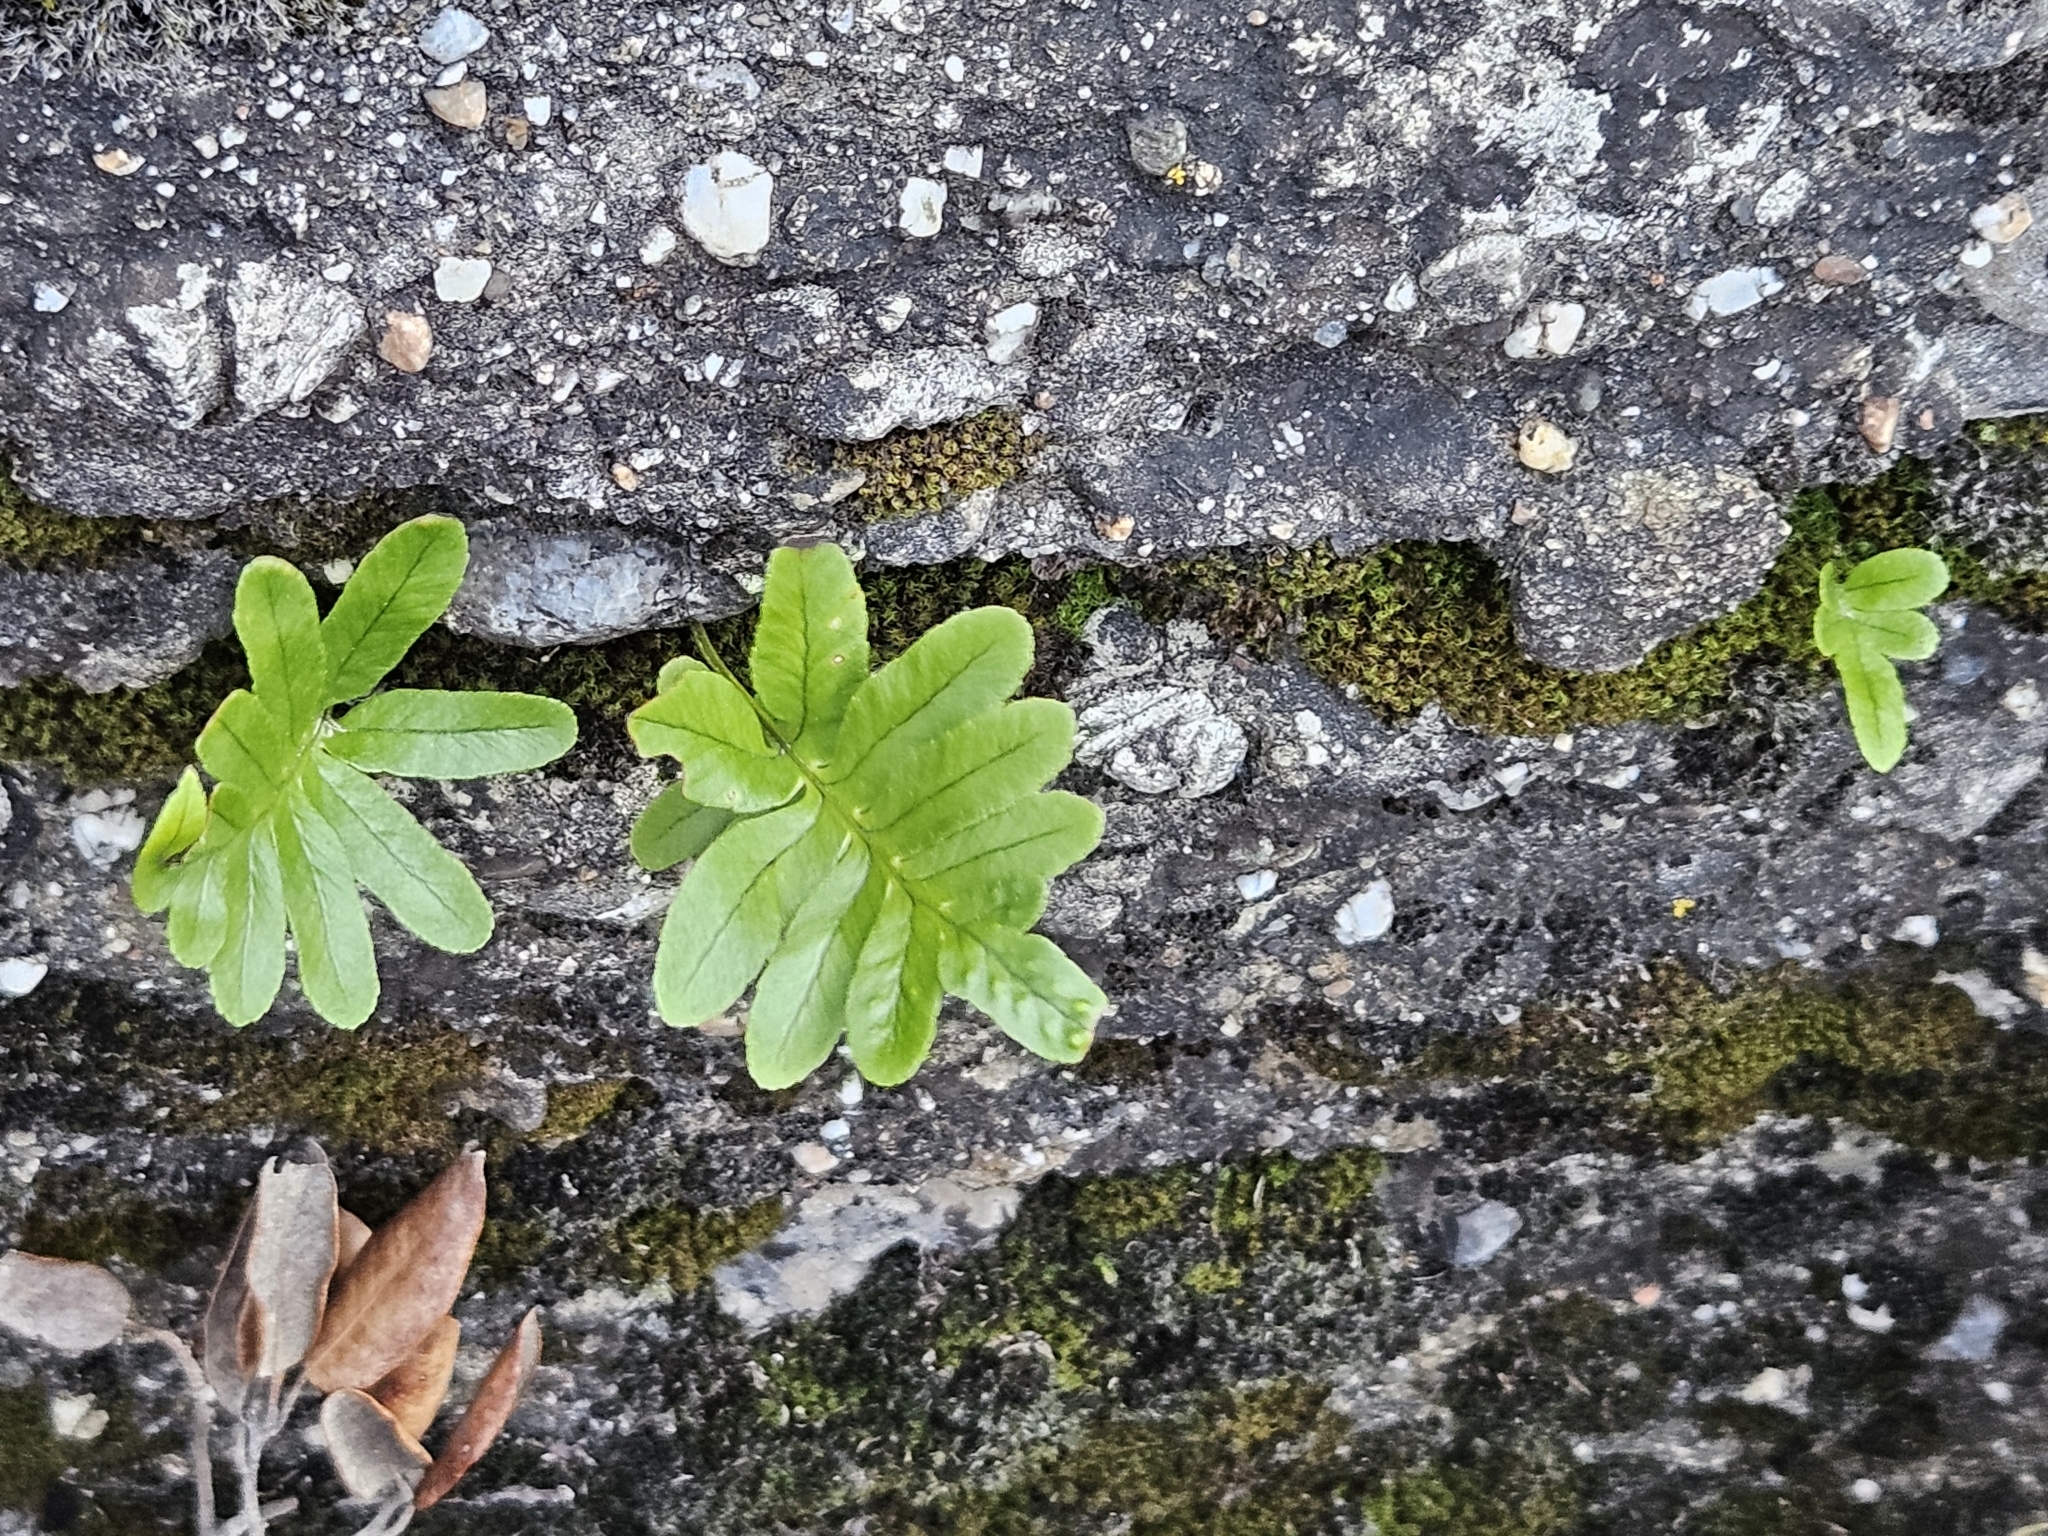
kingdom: Plantae
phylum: Tracheophyta
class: Polypodiopsida
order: Polypodiales
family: Polypodiaceae
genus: Polypodium
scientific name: Polypodium cambricum
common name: Southern polypody
